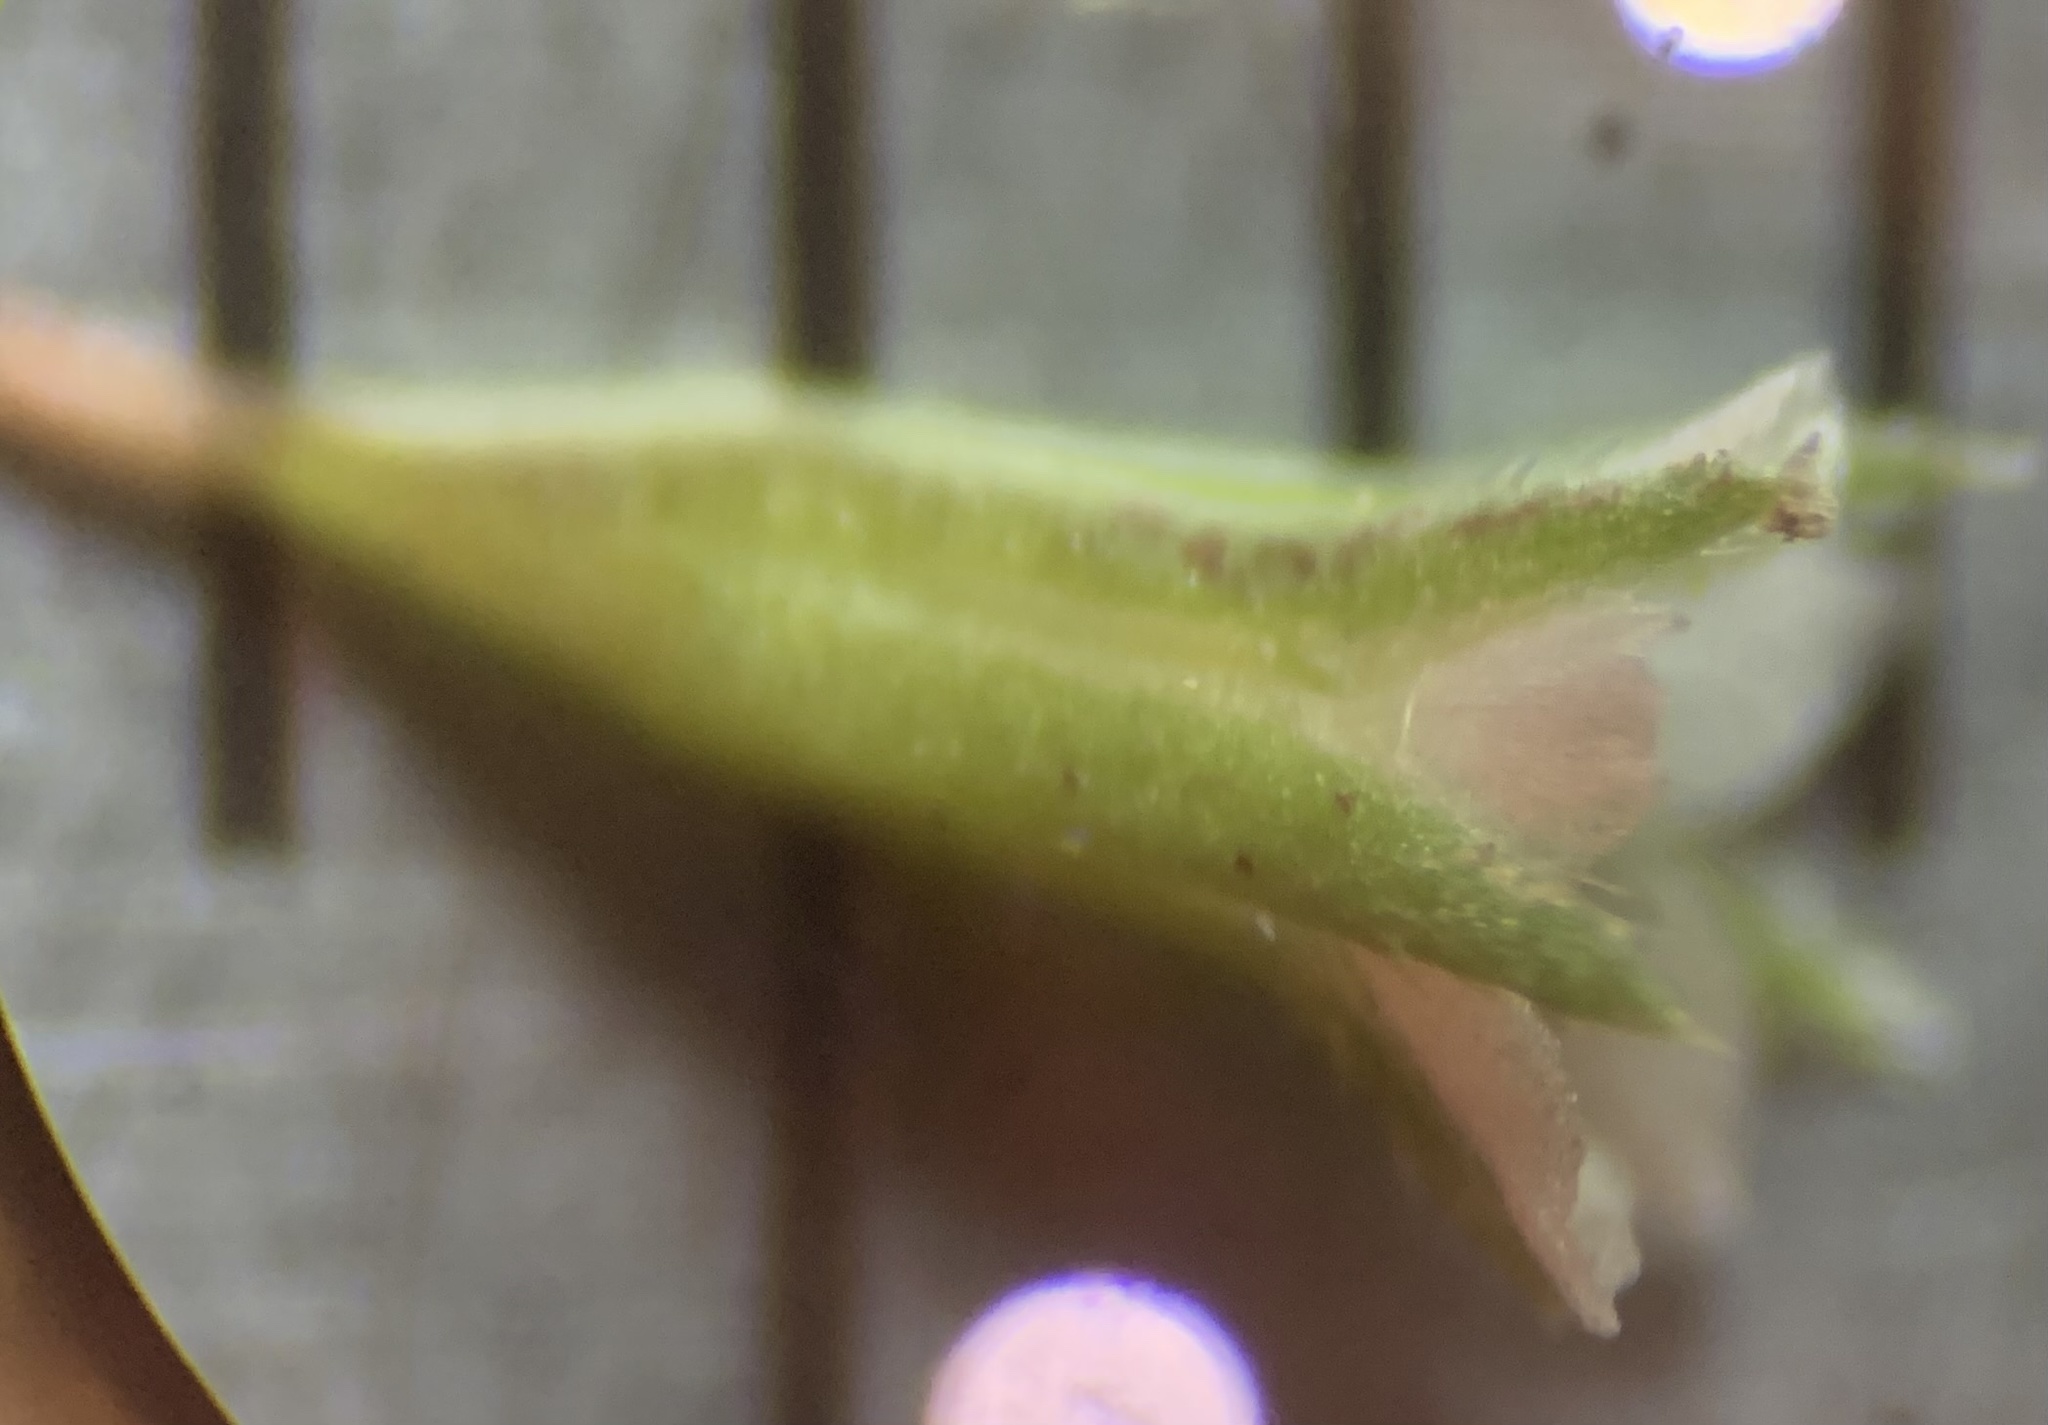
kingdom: Plantae
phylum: Tracheophyta
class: Magnoliopsida
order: Ericales
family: Polemoniaceae
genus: Linanthus
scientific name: Linanthus harknessii
